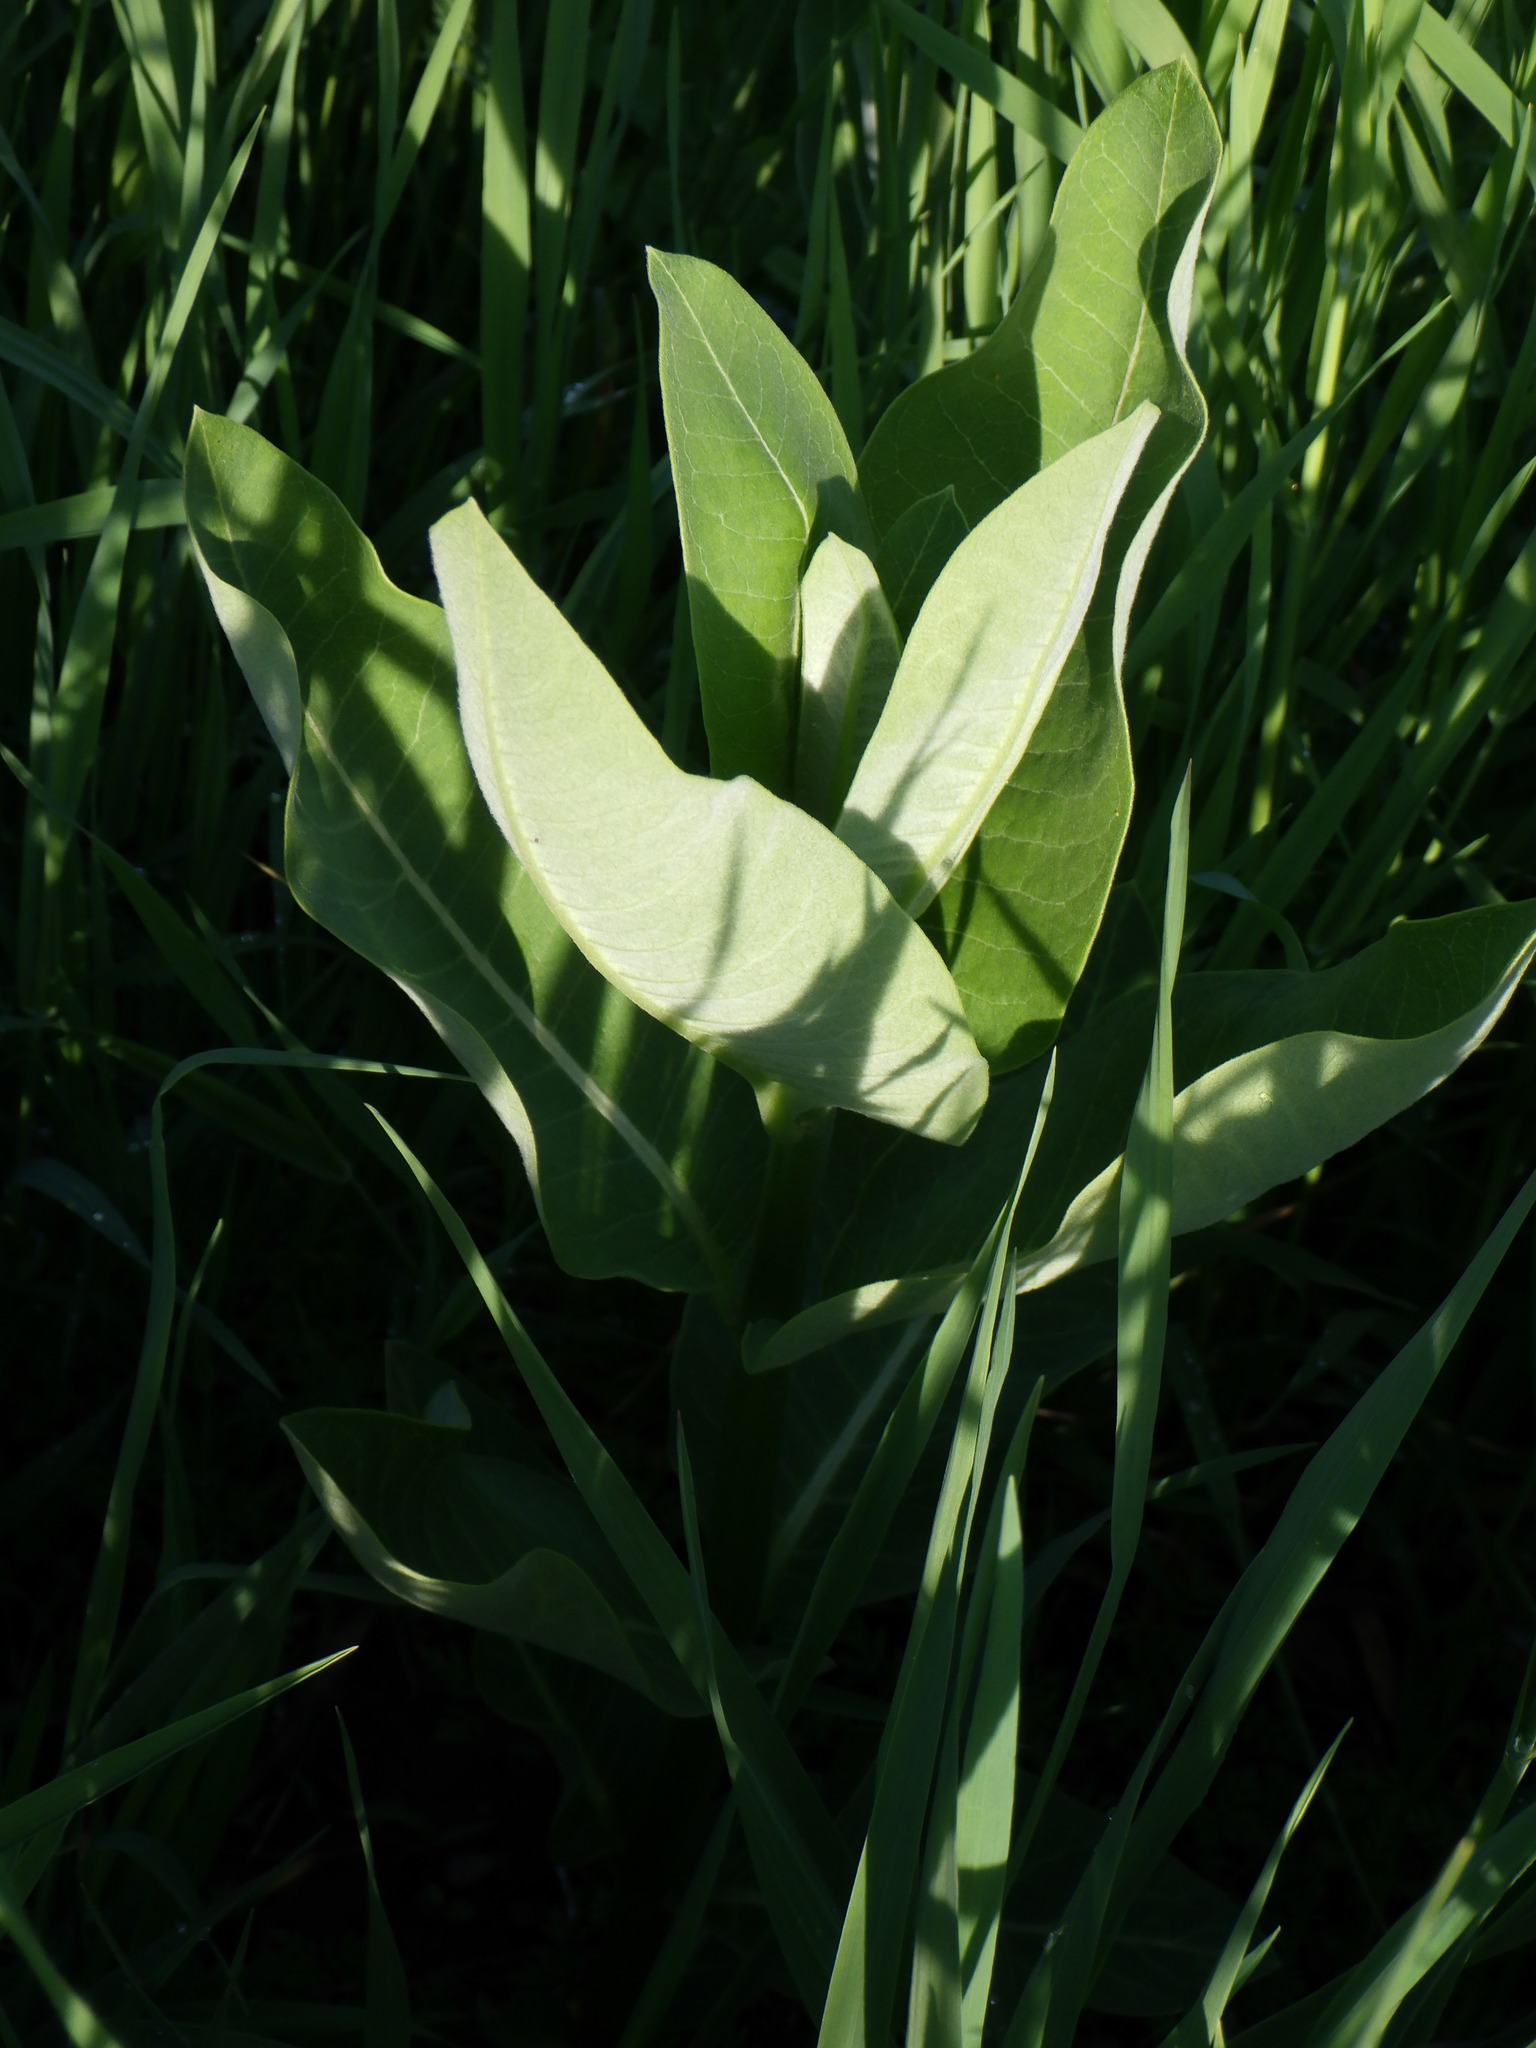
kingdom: Plantae
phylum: Tracheophyta
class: Magnoliopsida
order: Gentianales
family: Apocynaceae
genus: Asclepias
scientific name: Asclepias syriaca
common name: Common milkweed
